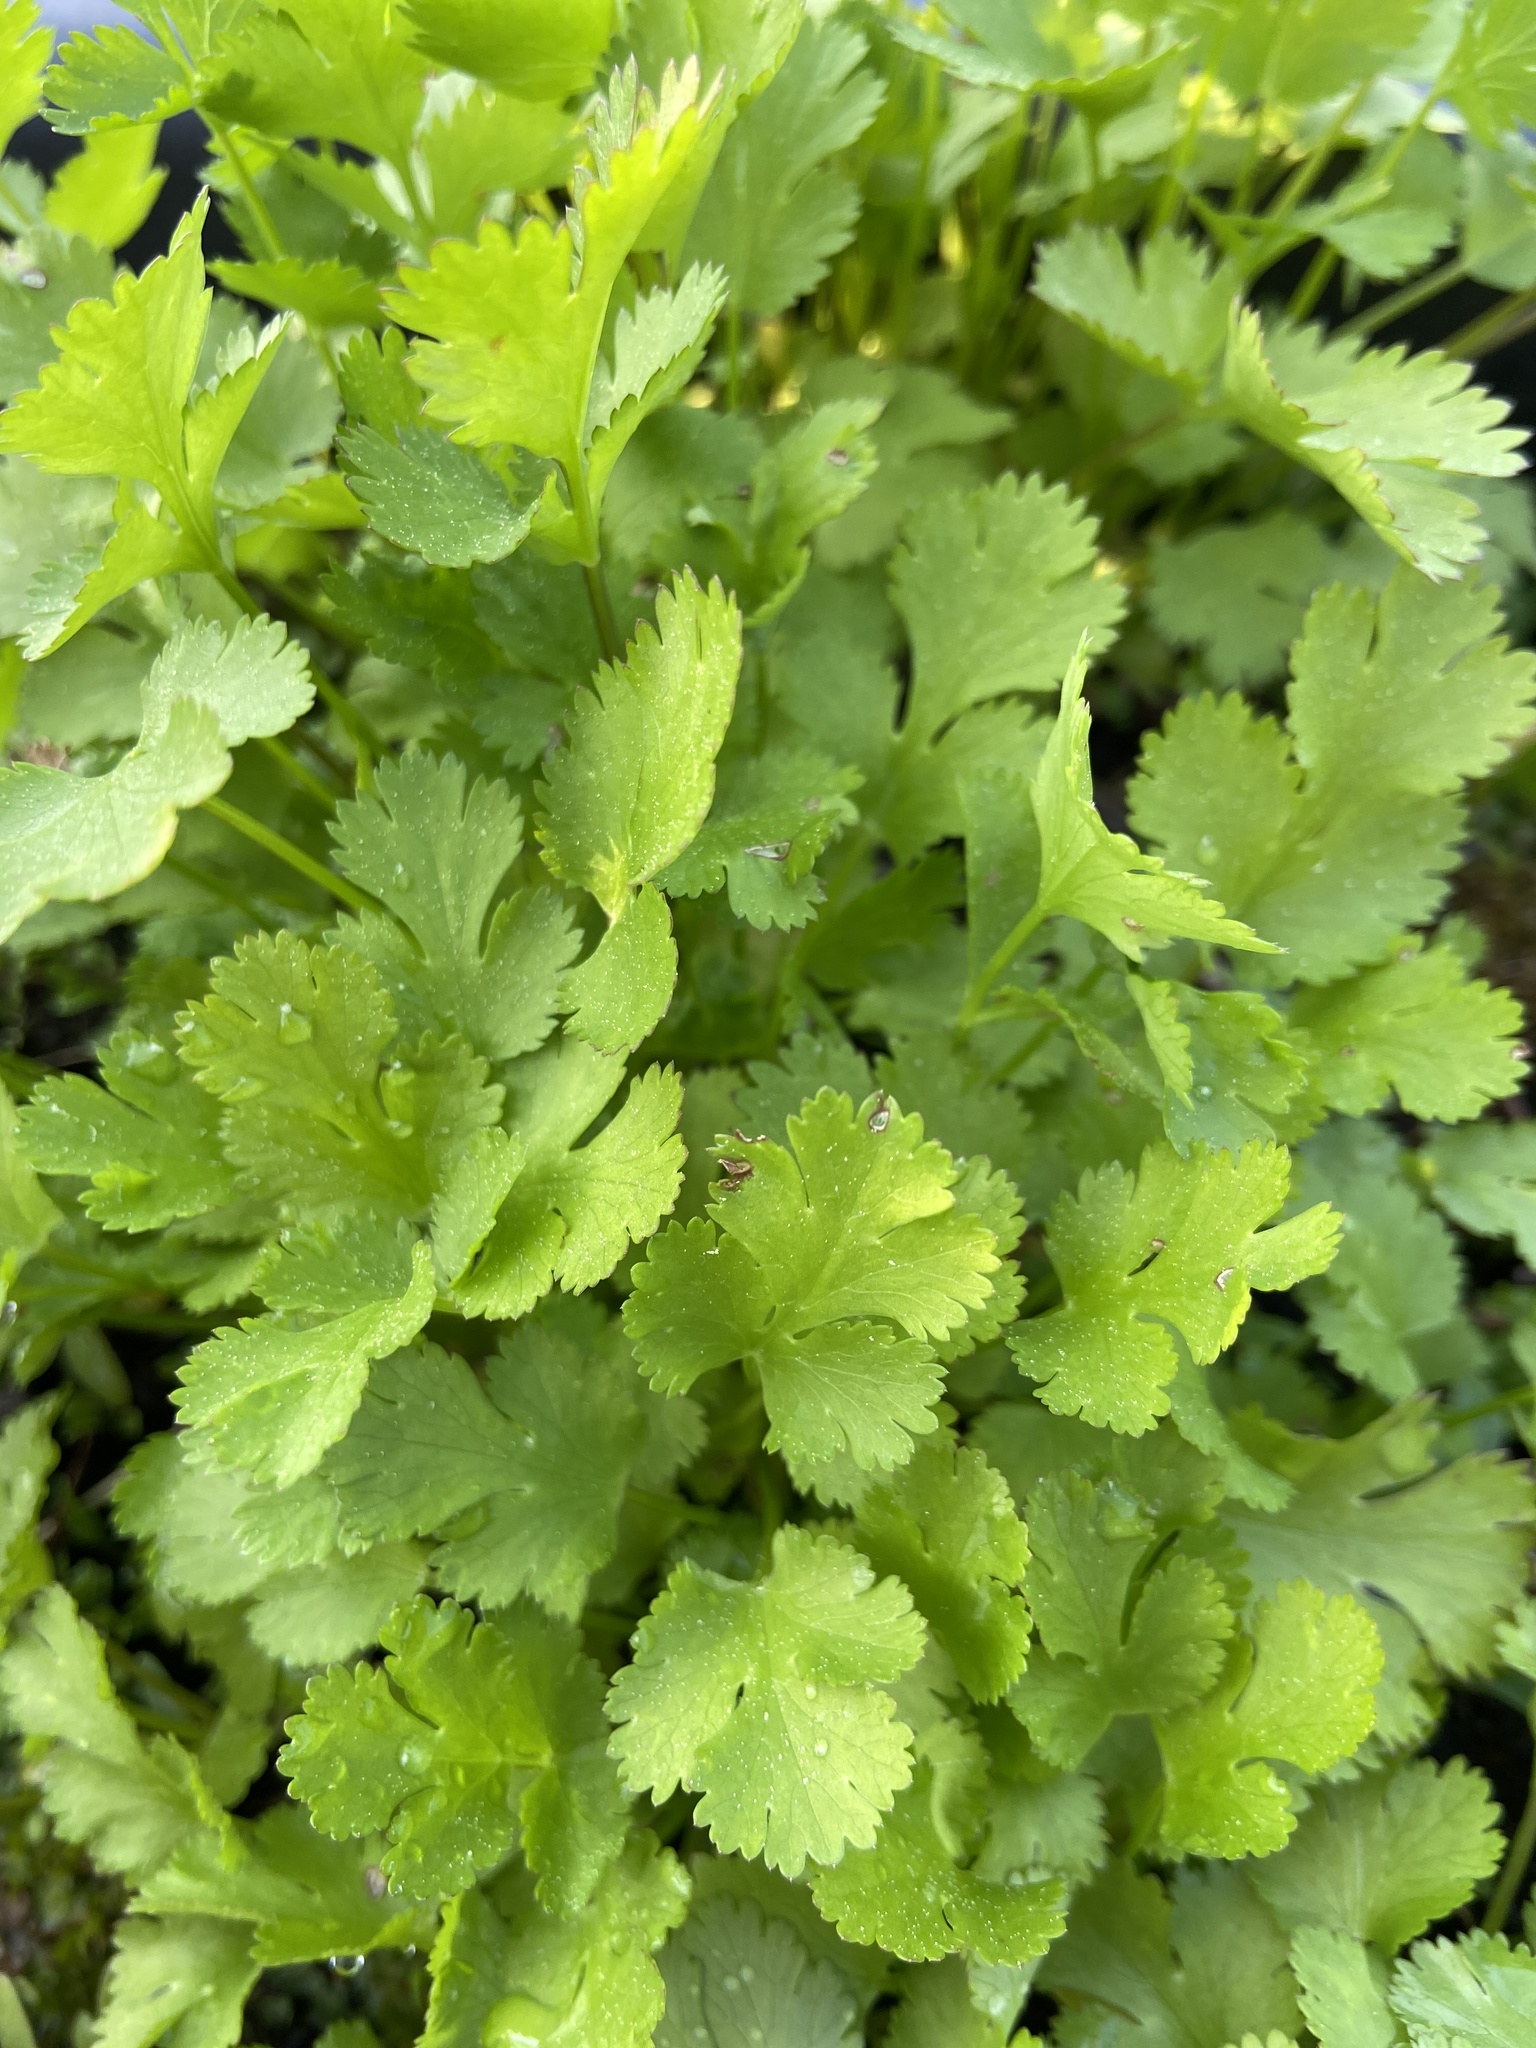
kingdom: Plantae
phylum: Tracheophyta
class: Magnoliopsida
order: Apiales
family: Apiaceae
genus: Coriandrum
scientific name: Coriandrum sativum
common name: Coriander
